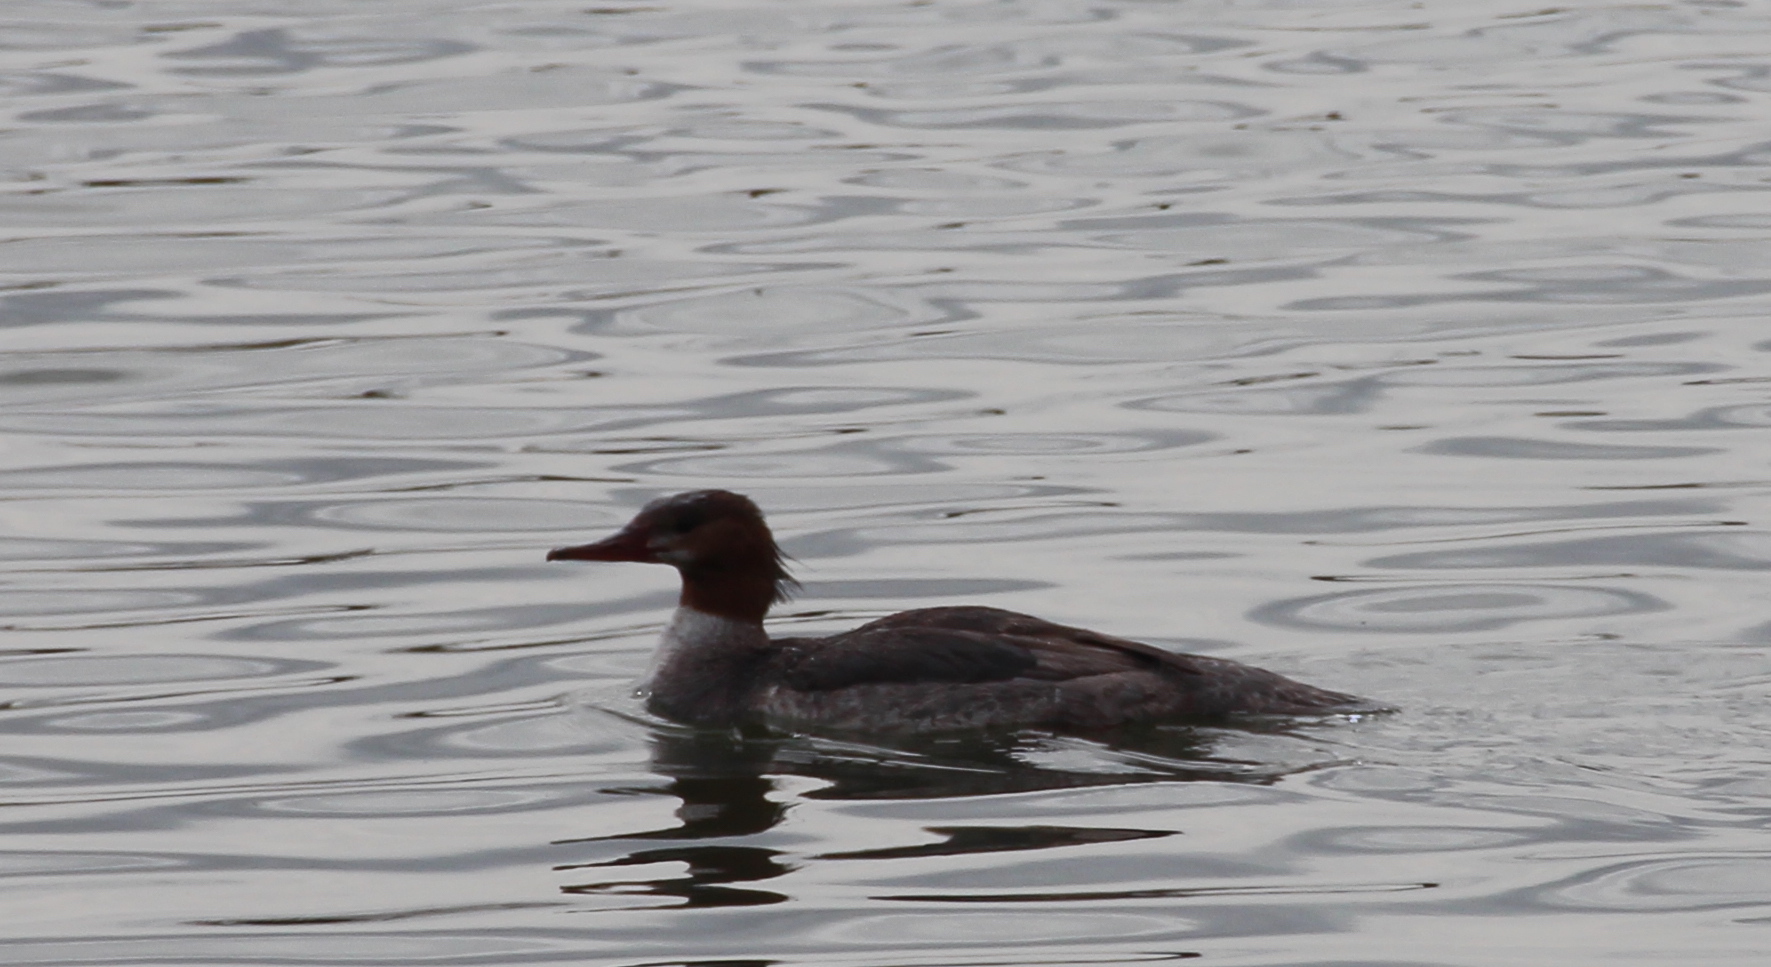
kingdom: Animalia
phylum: Chordata
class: Aves
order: Anseriformes
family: Anatidae
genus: Mergus
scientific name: Mergus merganser
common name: Common merganser
